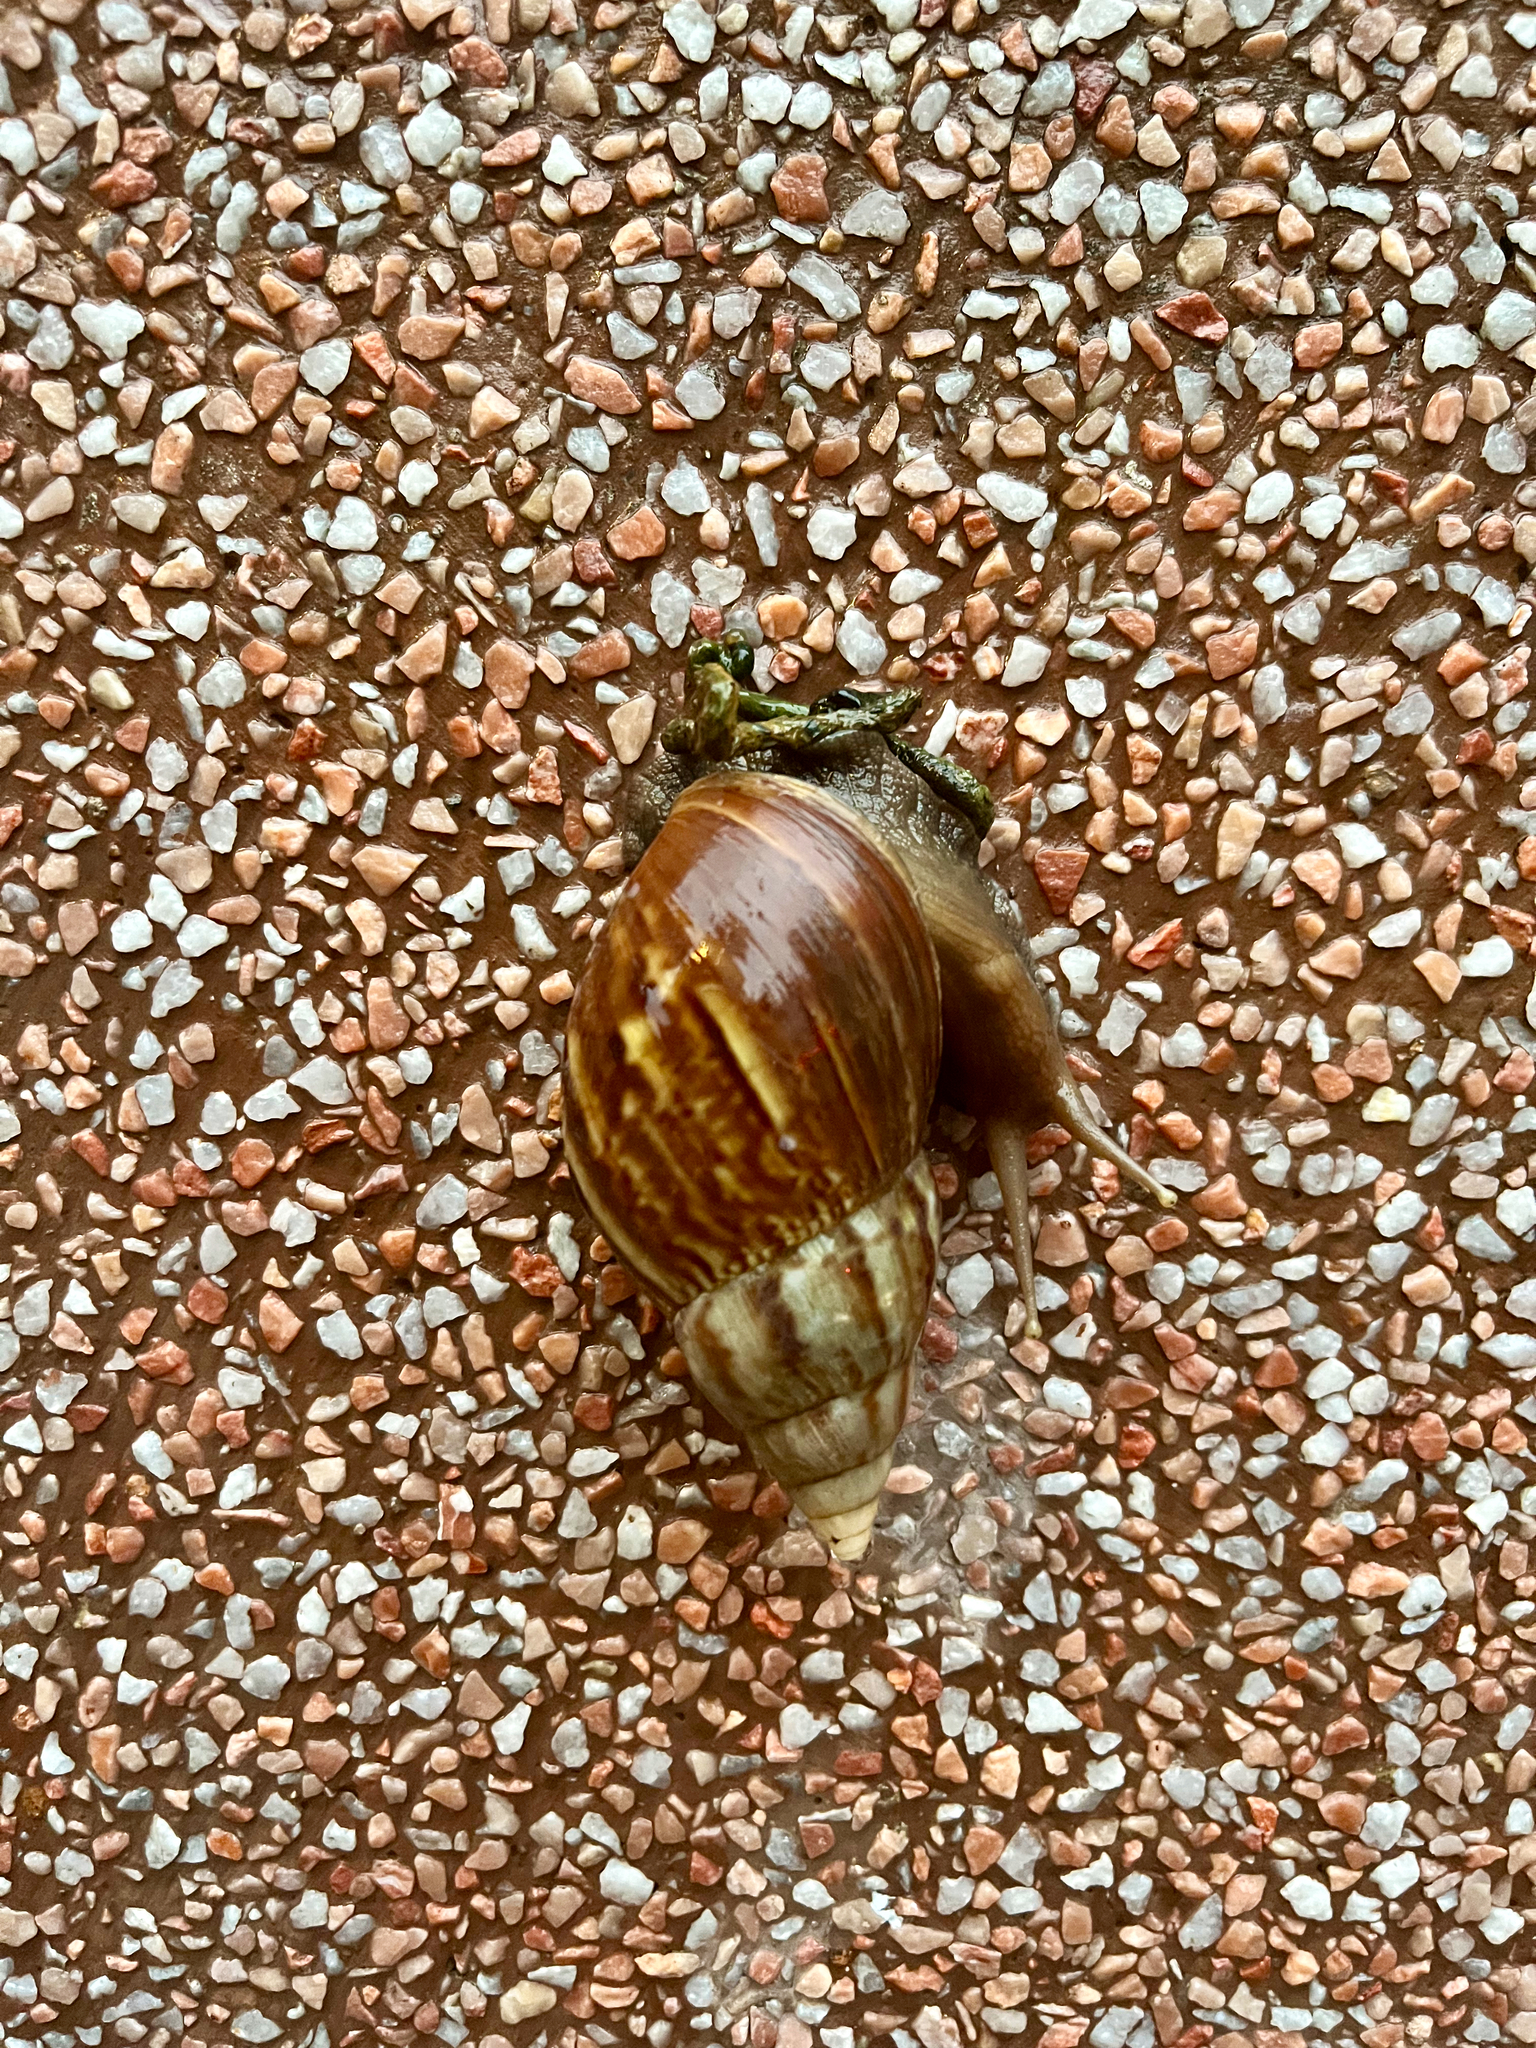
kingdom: Animalia
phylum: Mollusca
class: Gastropoda
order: Stylommatophora
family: Achatinidae
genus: Lissachatina
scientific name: Lissachatina fulica
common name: Giant african snail
